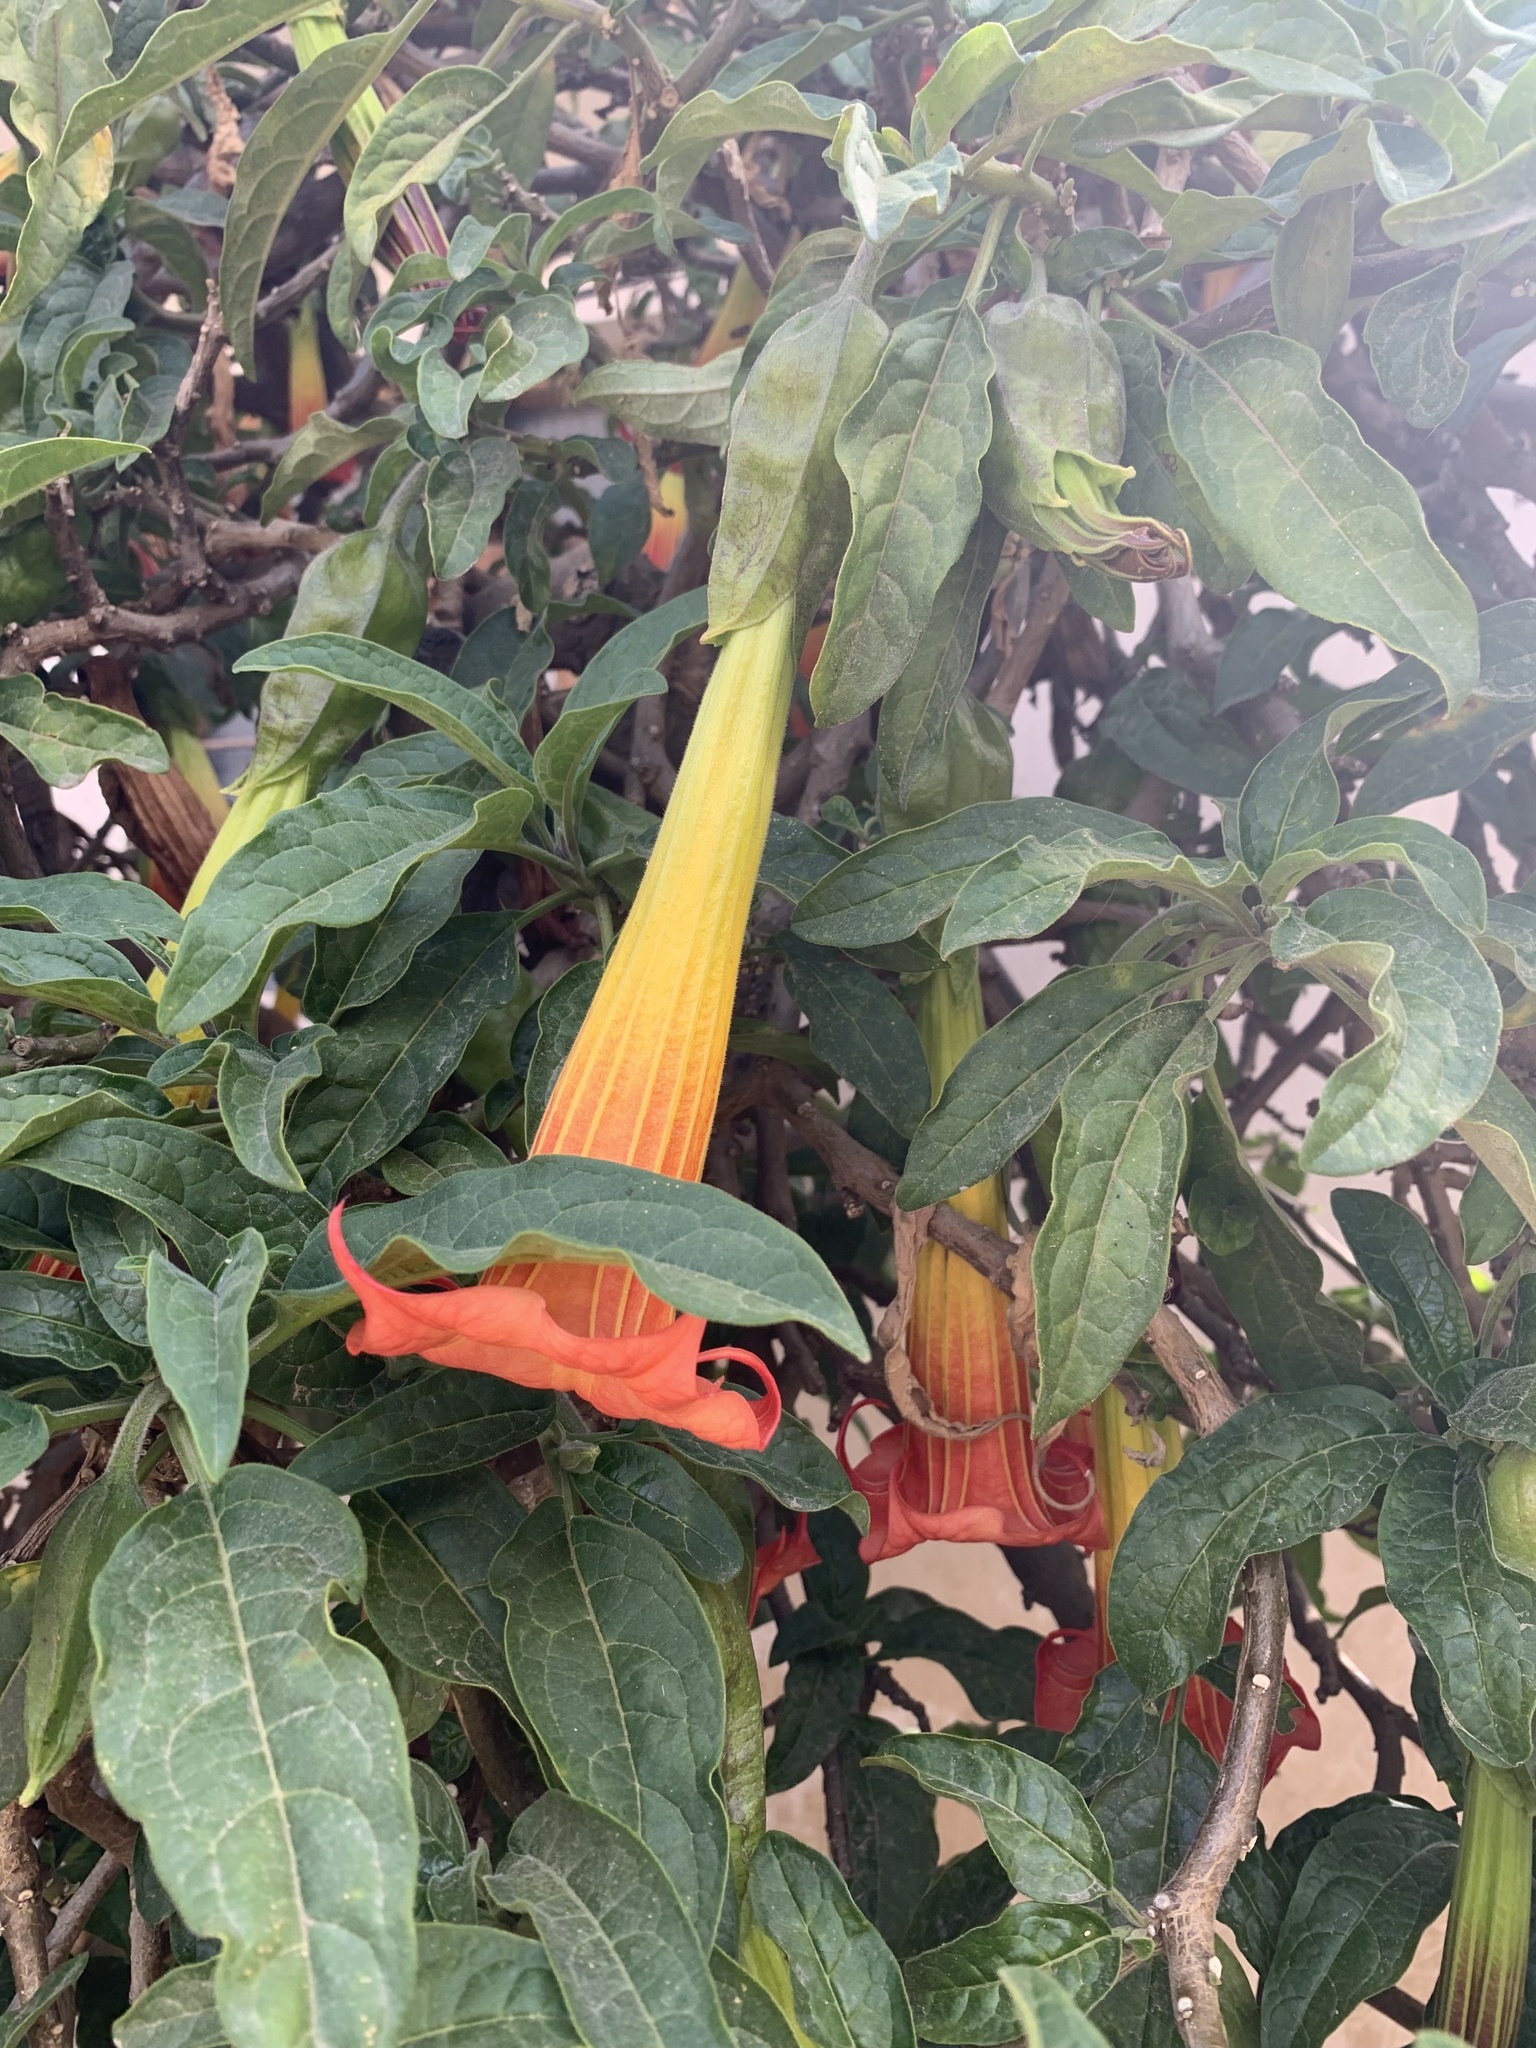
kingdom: Plantae
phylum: Tracheophyta
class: Magnoliopsida
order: Solanales
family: Solanaceae
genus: Brugmansia
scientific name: Brugmansia sanguinea
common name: Red floripontio
